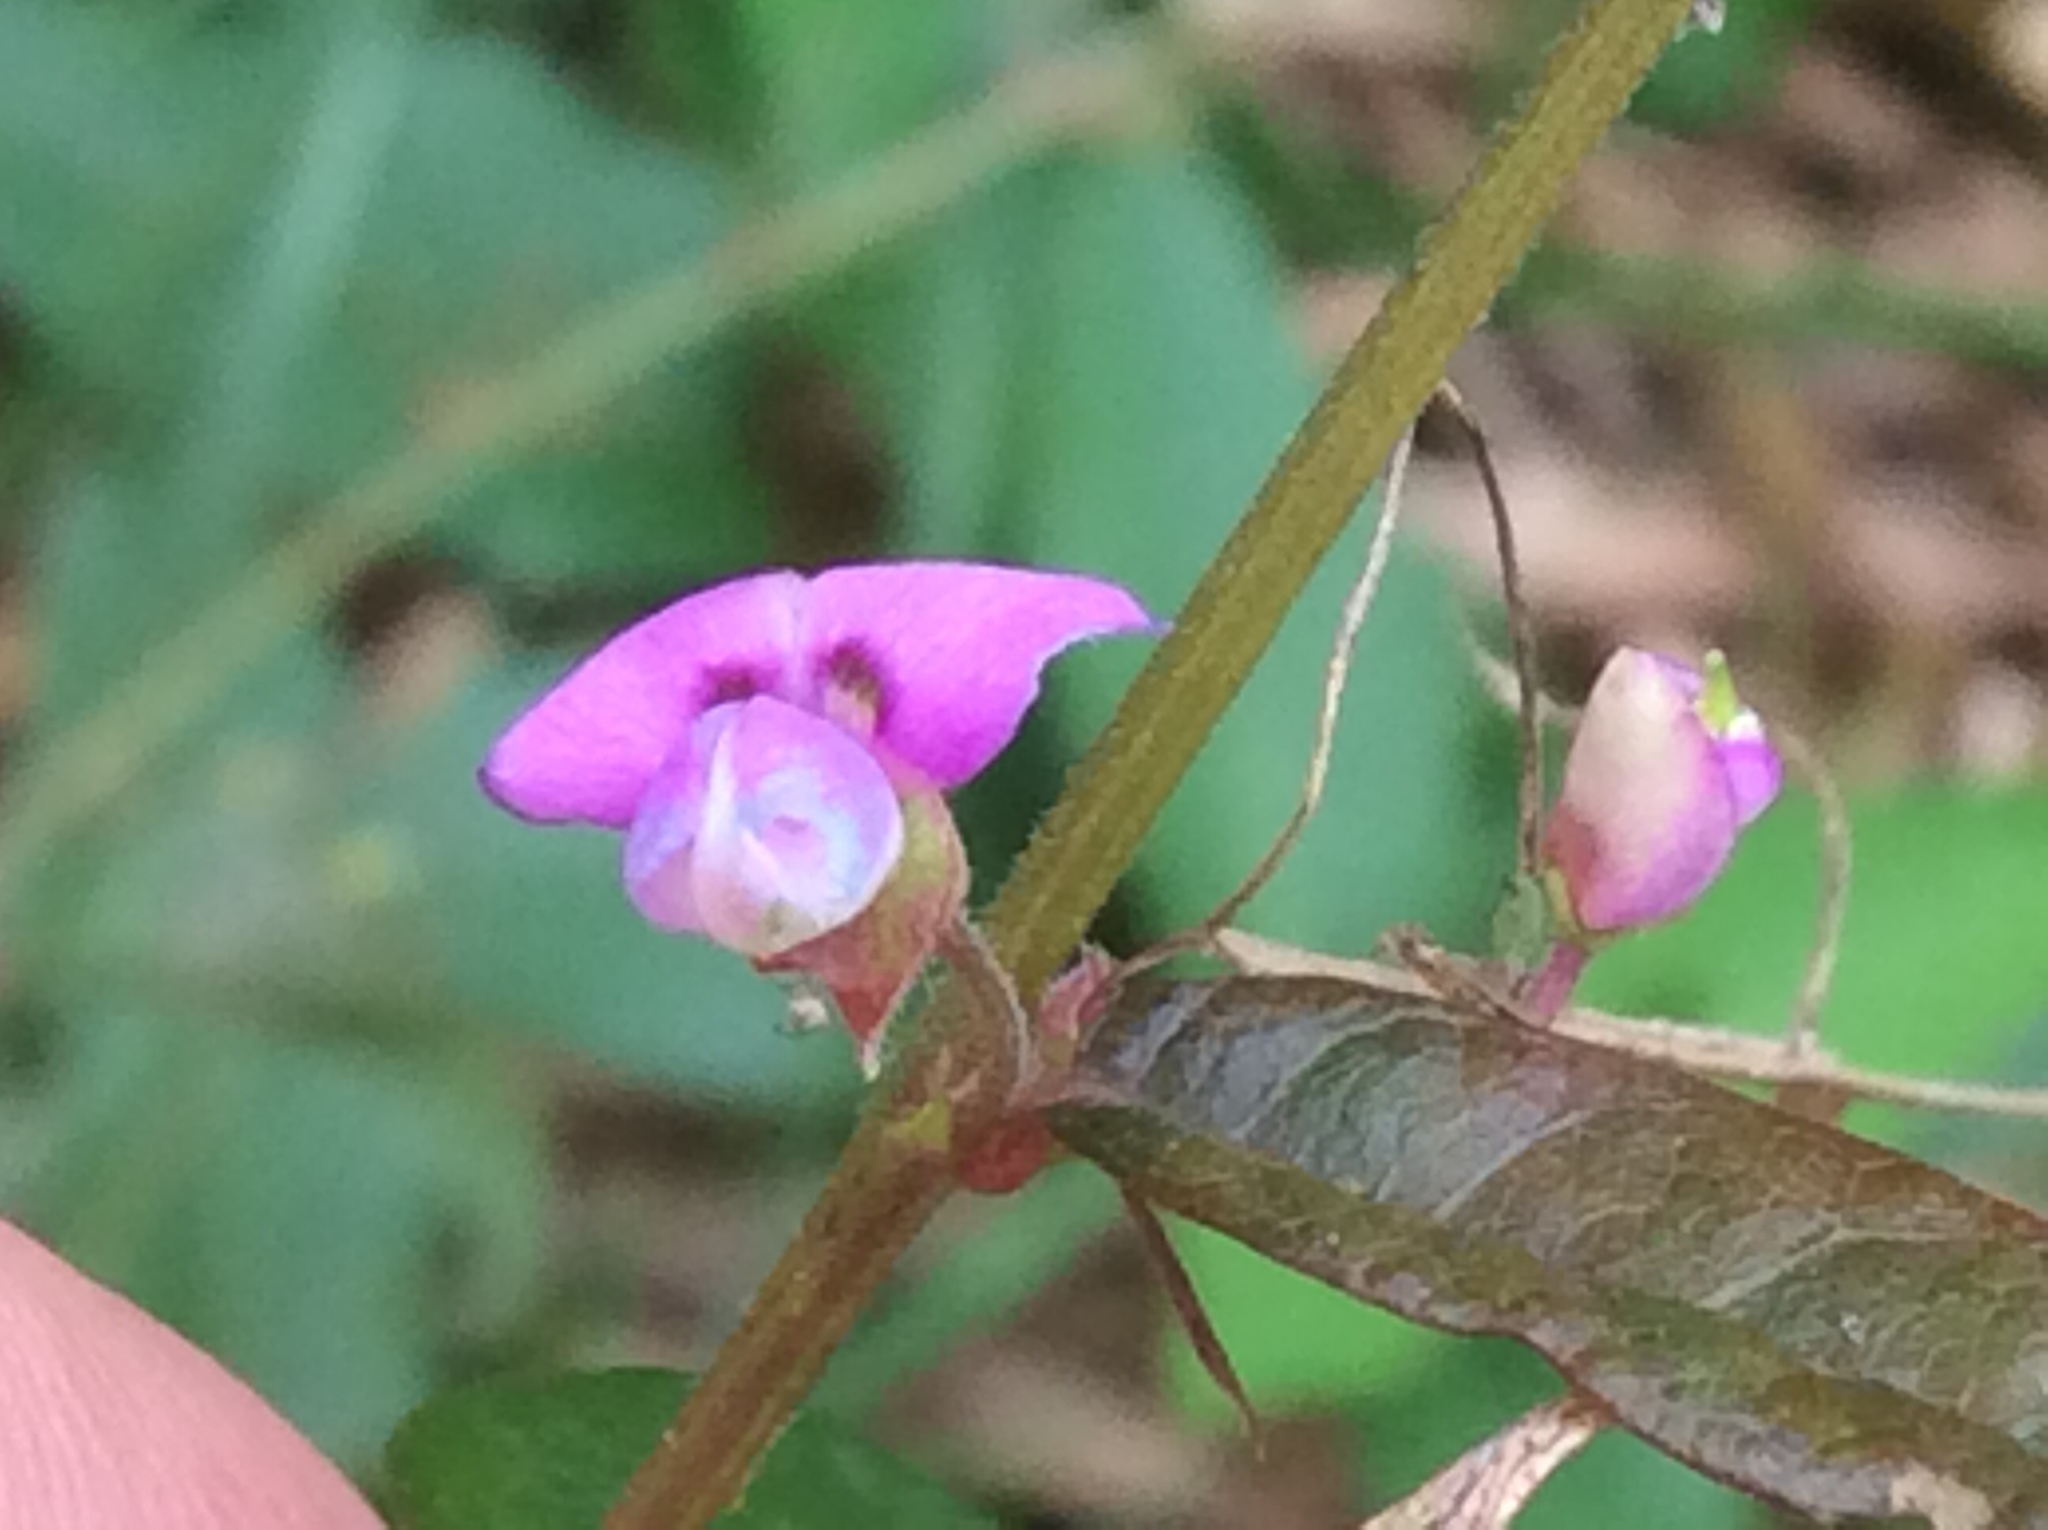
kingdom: Plantae
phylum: Tracheophyta
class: Magnoliopsida
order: Fabales
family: Fabaceae
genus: Desmodium
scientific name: Desmodium
